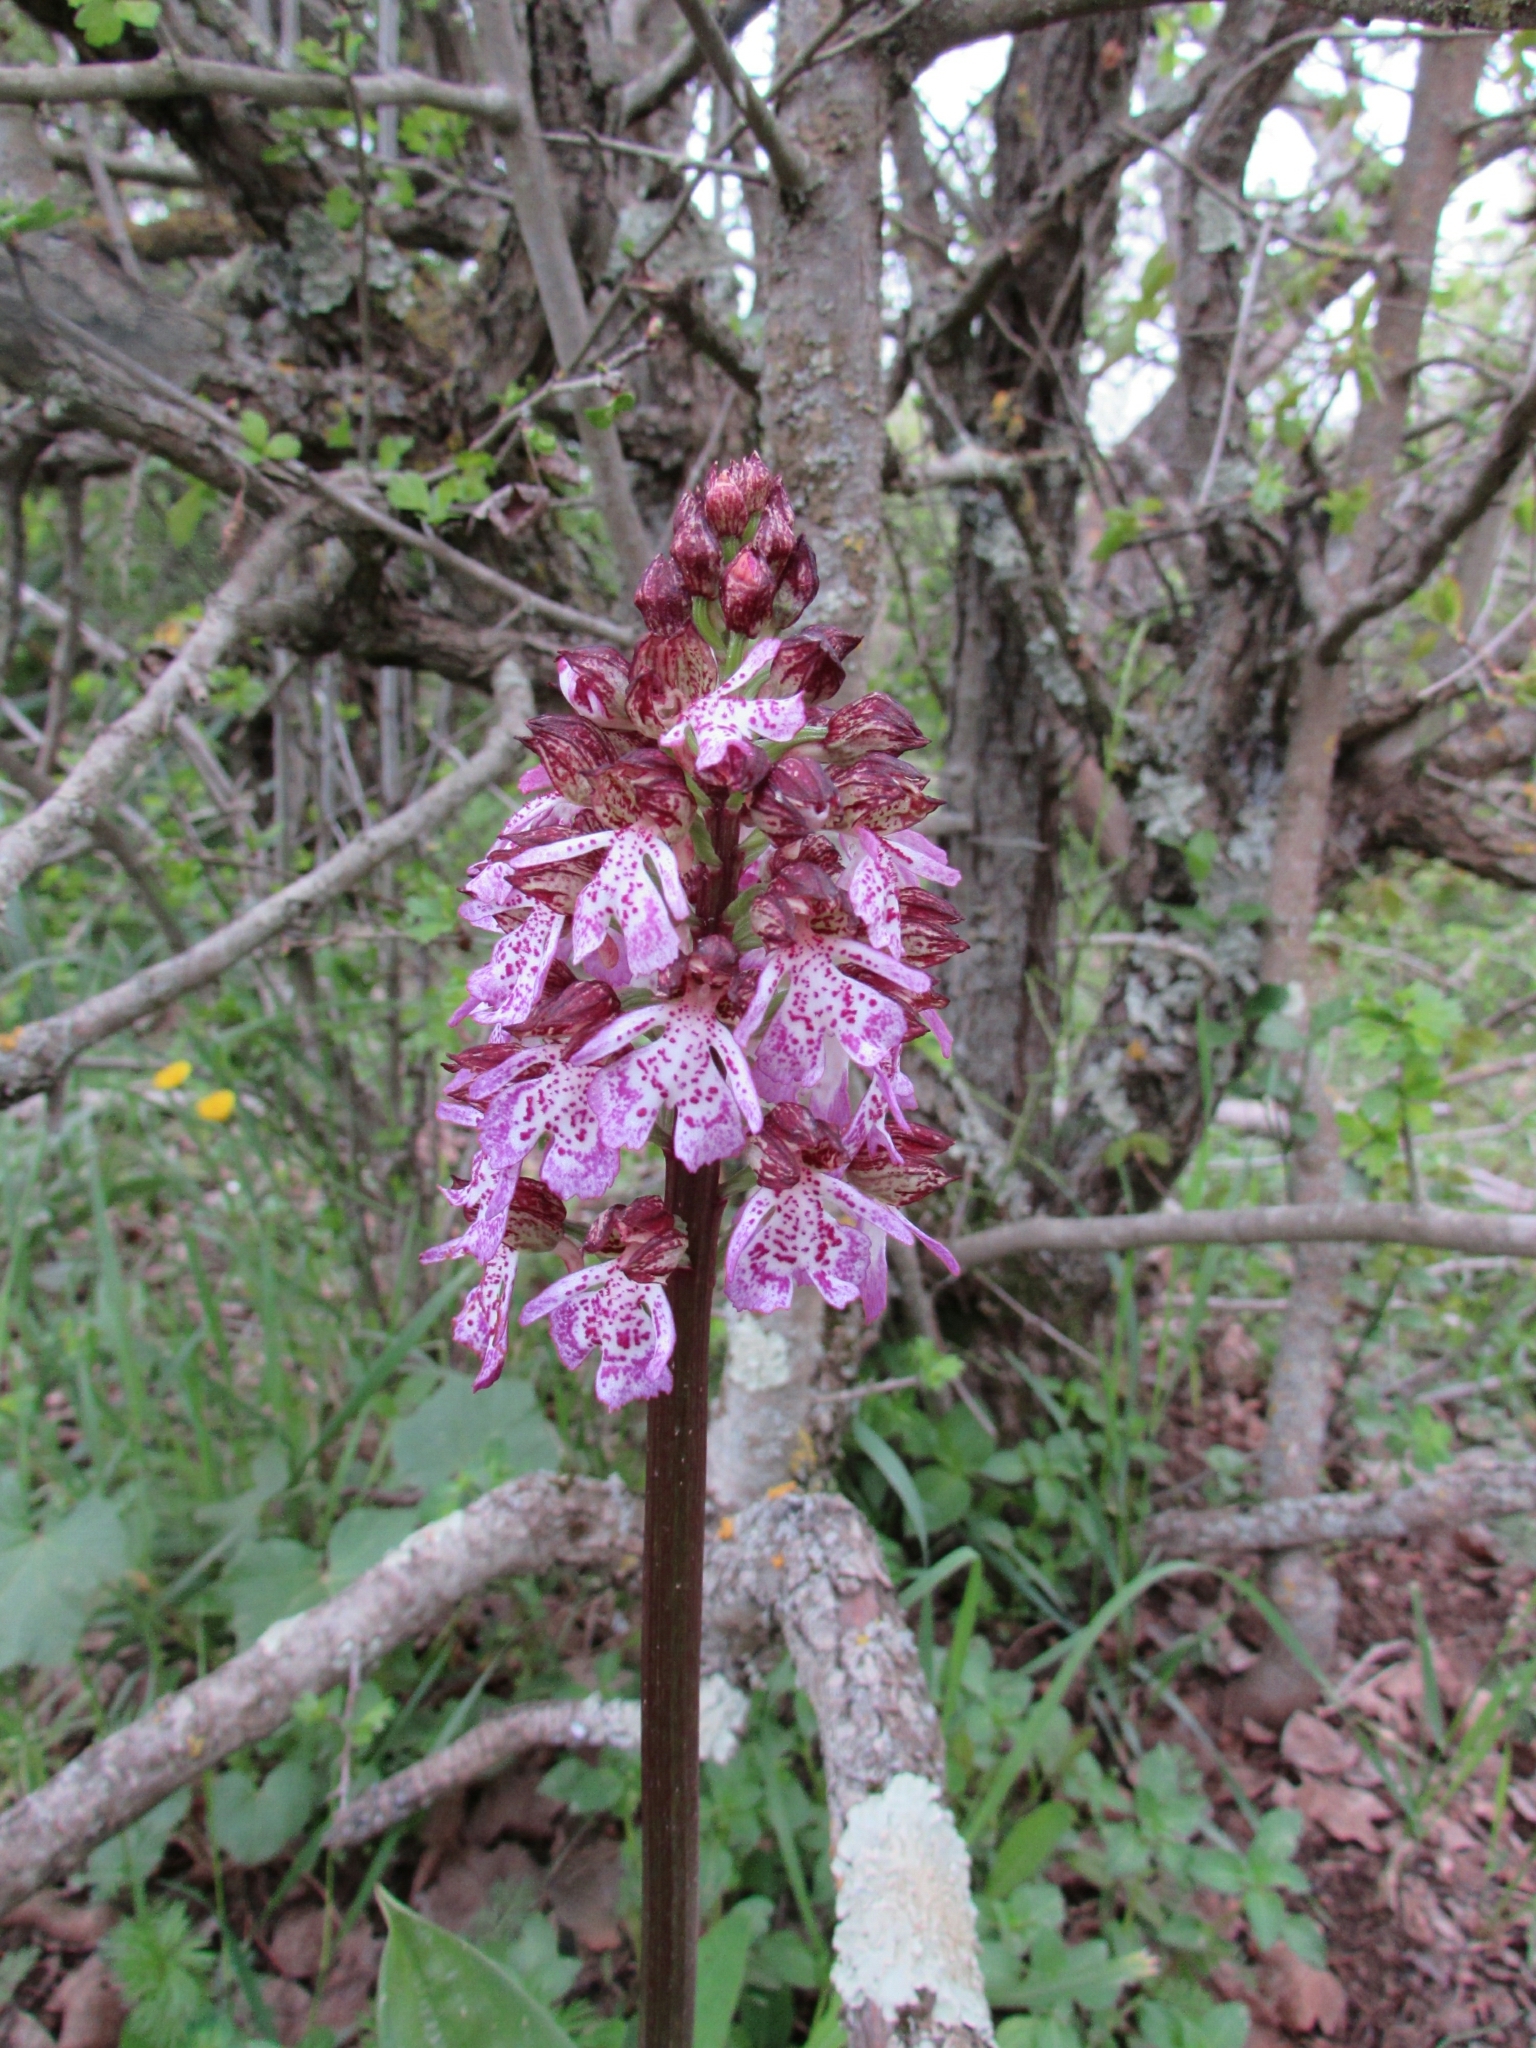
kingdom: Plantae
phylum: Tracheophyta
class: Liliopsida
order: Asparagales
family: Orchidaceae
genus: Orchis
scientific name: Orchis purpurea
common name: Lady orchid
